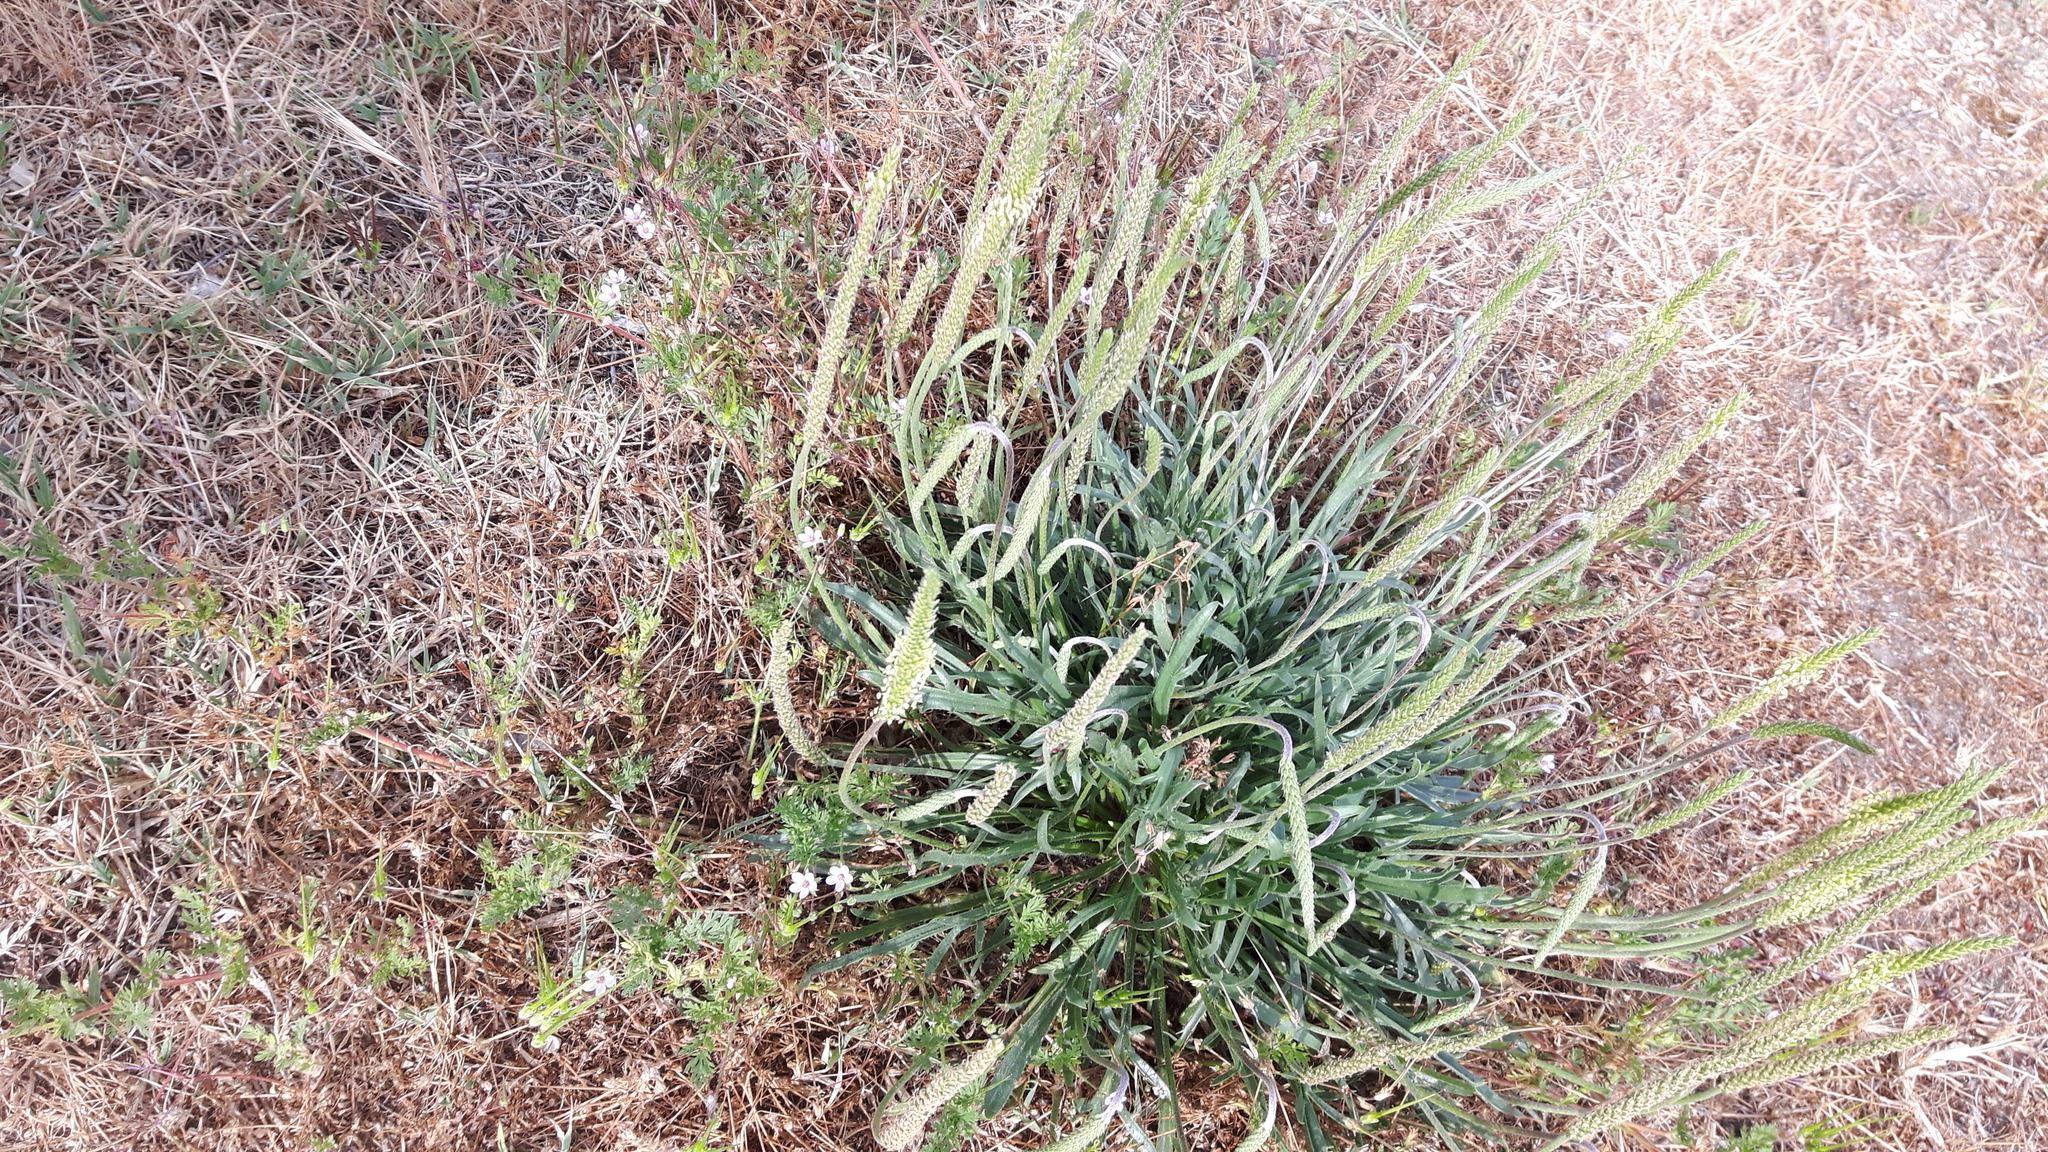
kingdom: Plantae
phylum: Tracheophyta
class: Magnoliopsida
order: Lamiales
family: Plantaginaceae
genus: Plantago
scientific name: Plantago coronopus
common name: Buck's-horn plantain
